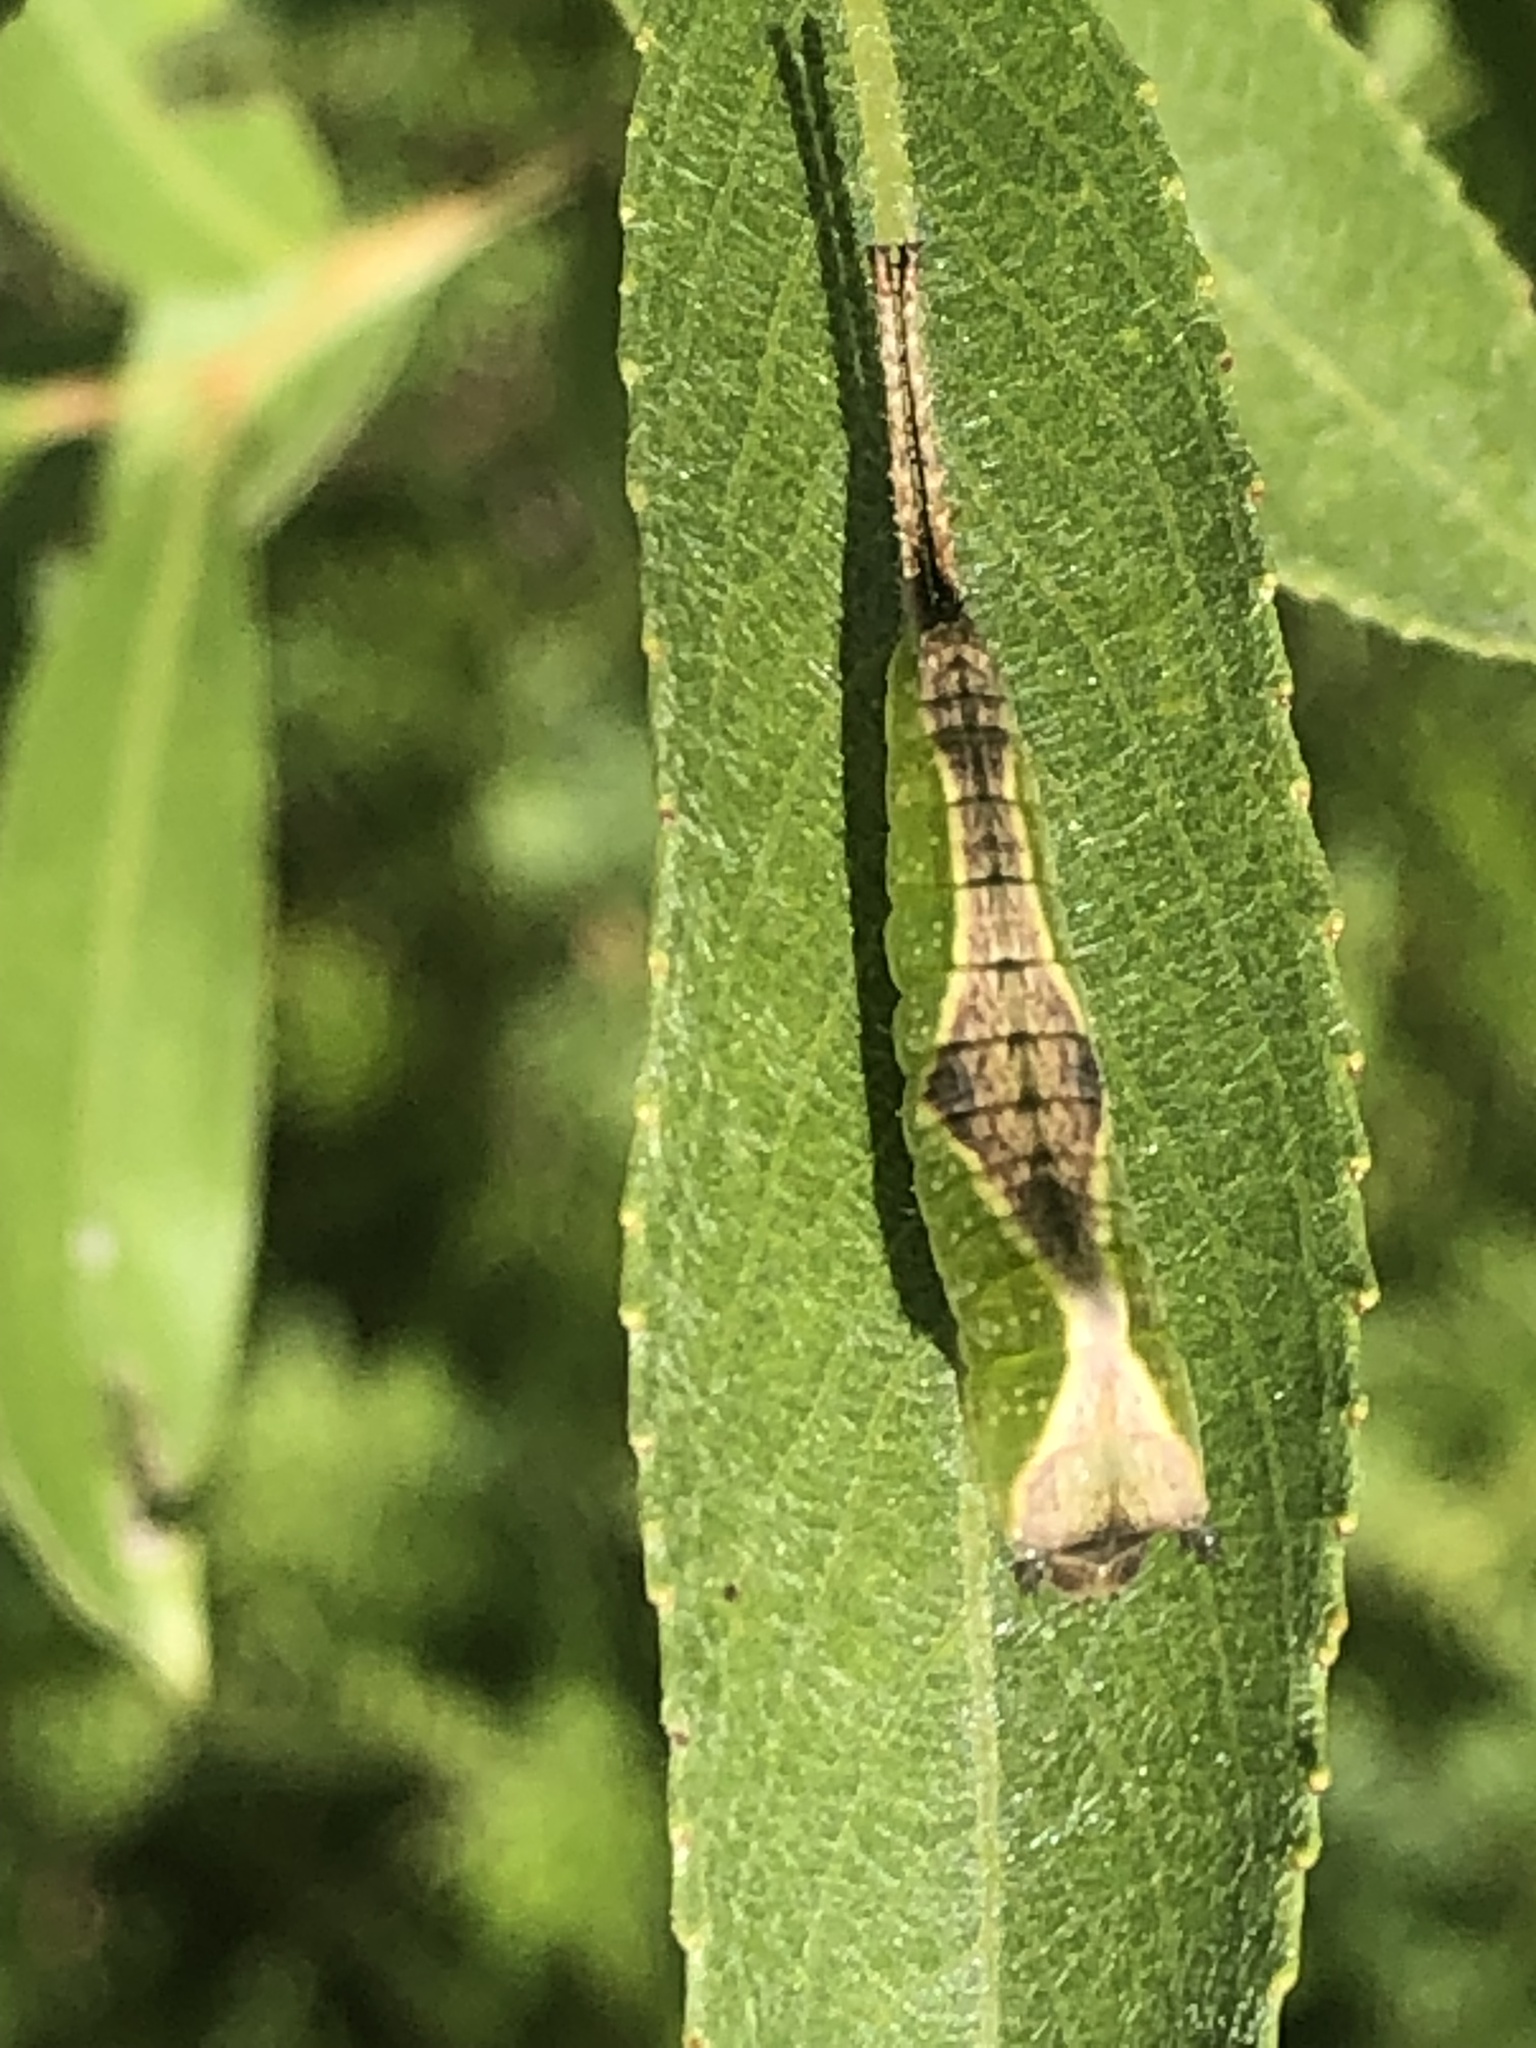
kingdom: Animalia
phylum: Arthropoda
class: Insecta
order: Lepidoptera
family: Notodontidae
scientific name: Notodontidae
